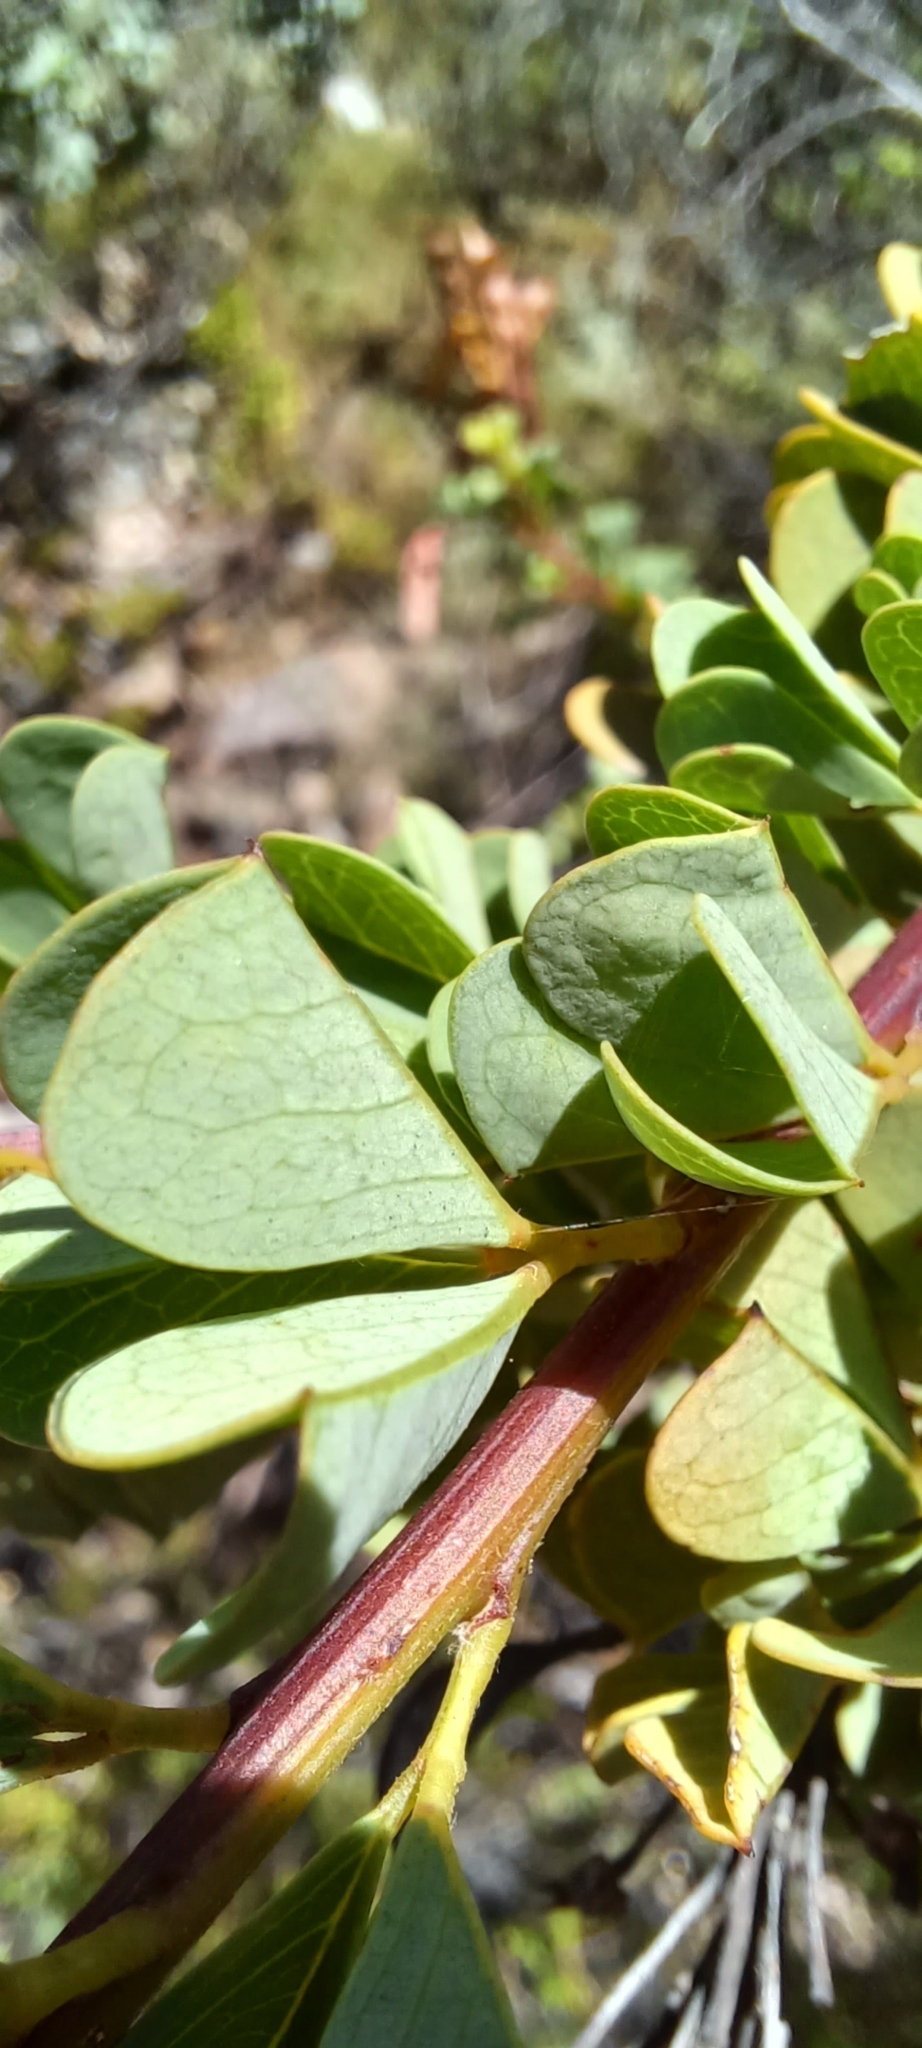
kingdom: Plantae
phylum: Tracheophyta
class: Magnoliopsida
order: Fabales
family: Fabaceae
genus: Hypocalyptus
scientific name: Hypocalyptus sophoroides
